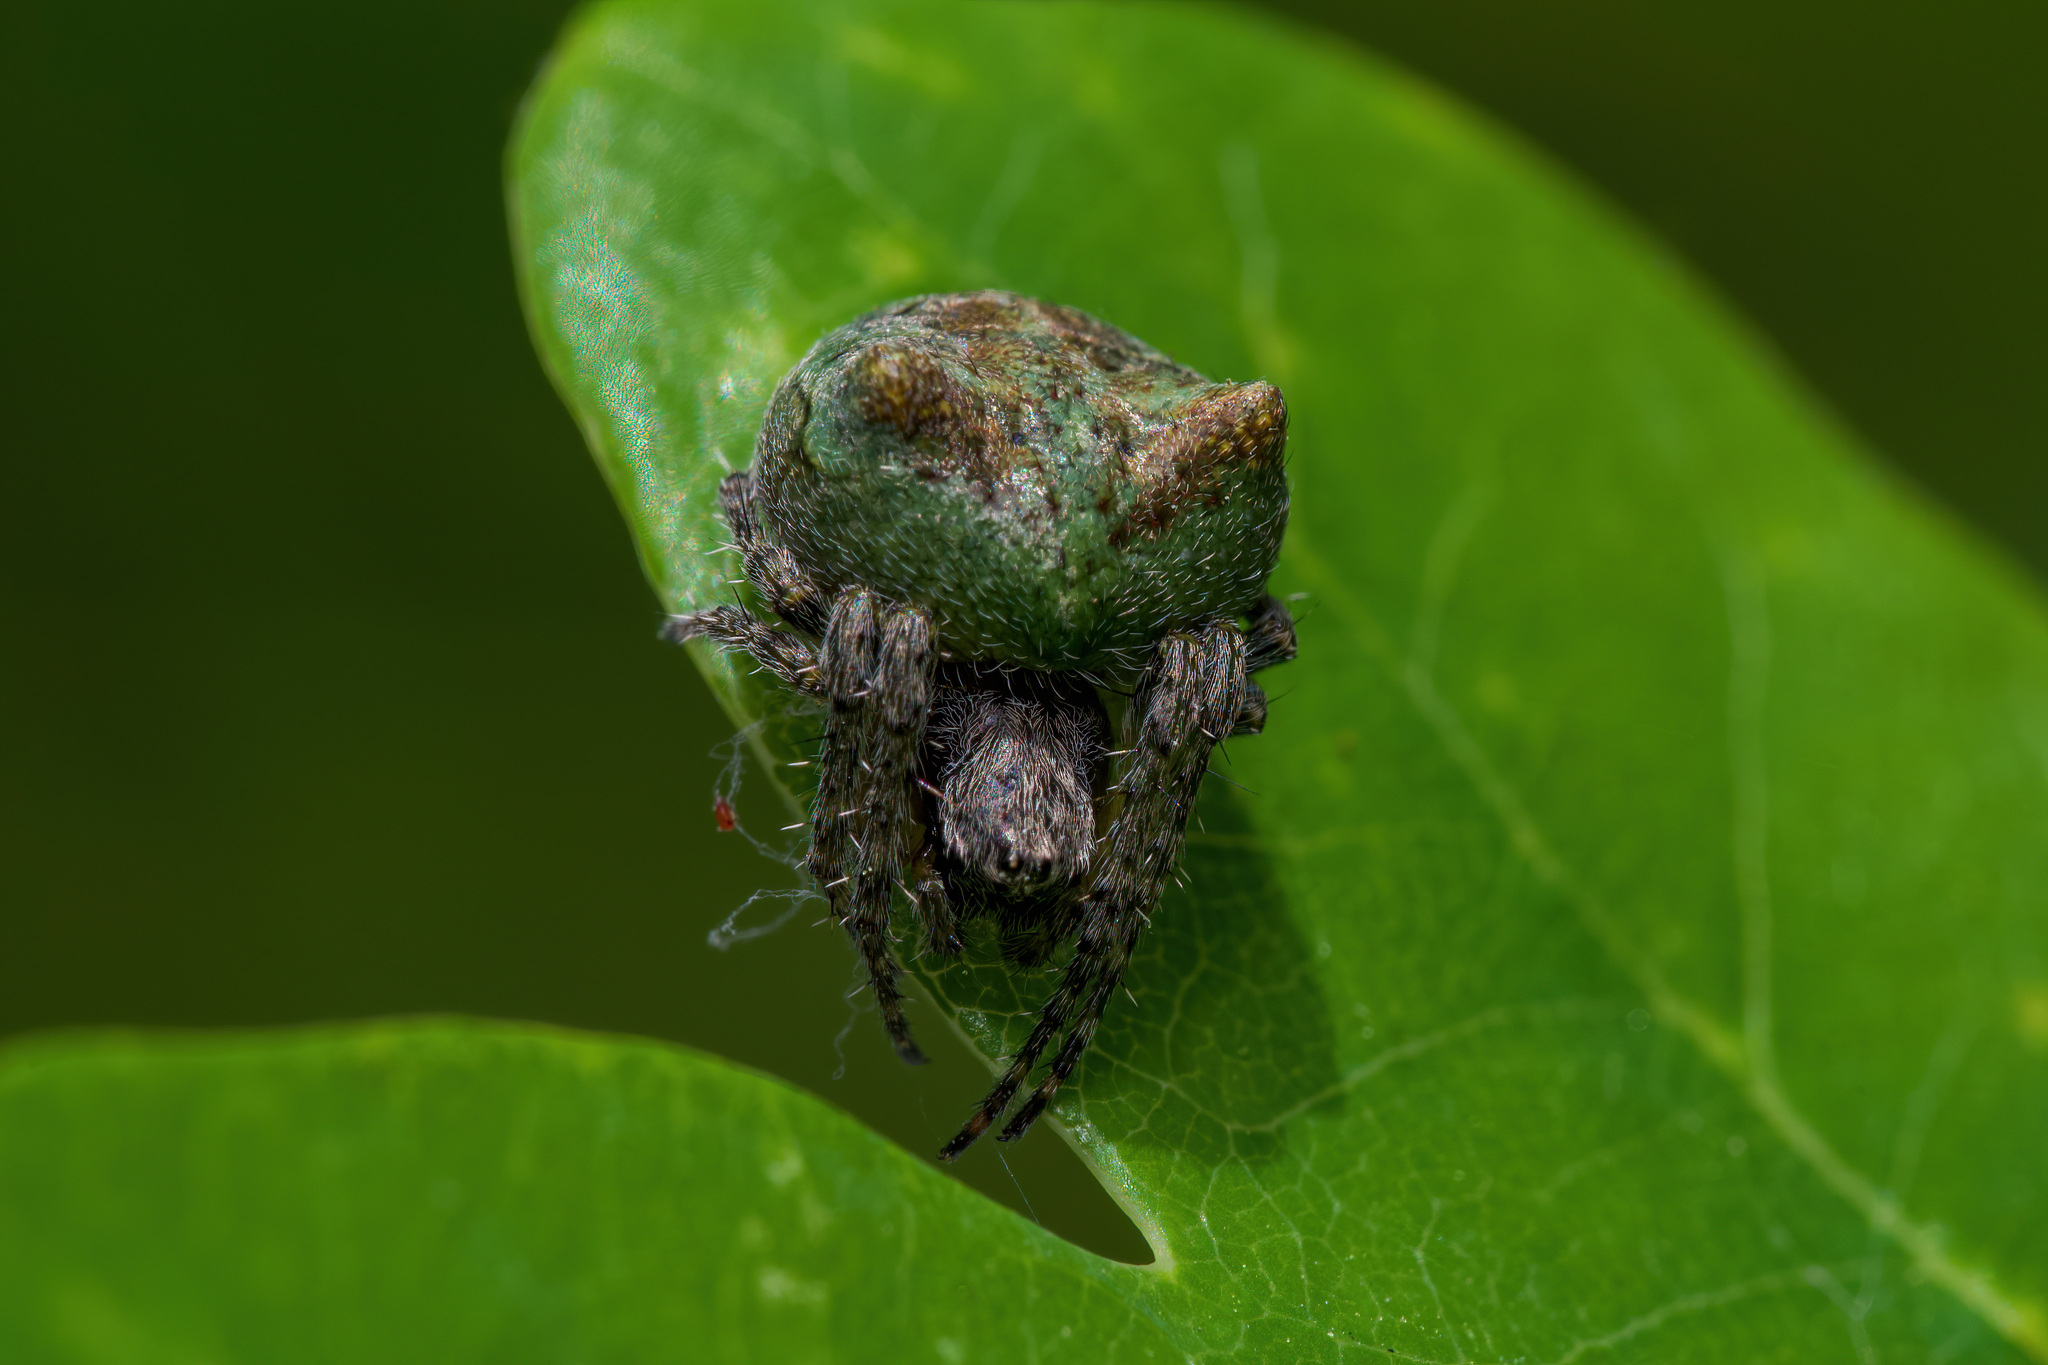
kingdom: Animalia
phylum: Arthropoda
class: Arachnida
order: Araneae
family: Araneidae
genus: Gibbaranea
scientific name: Gibbaranea gibbosa
